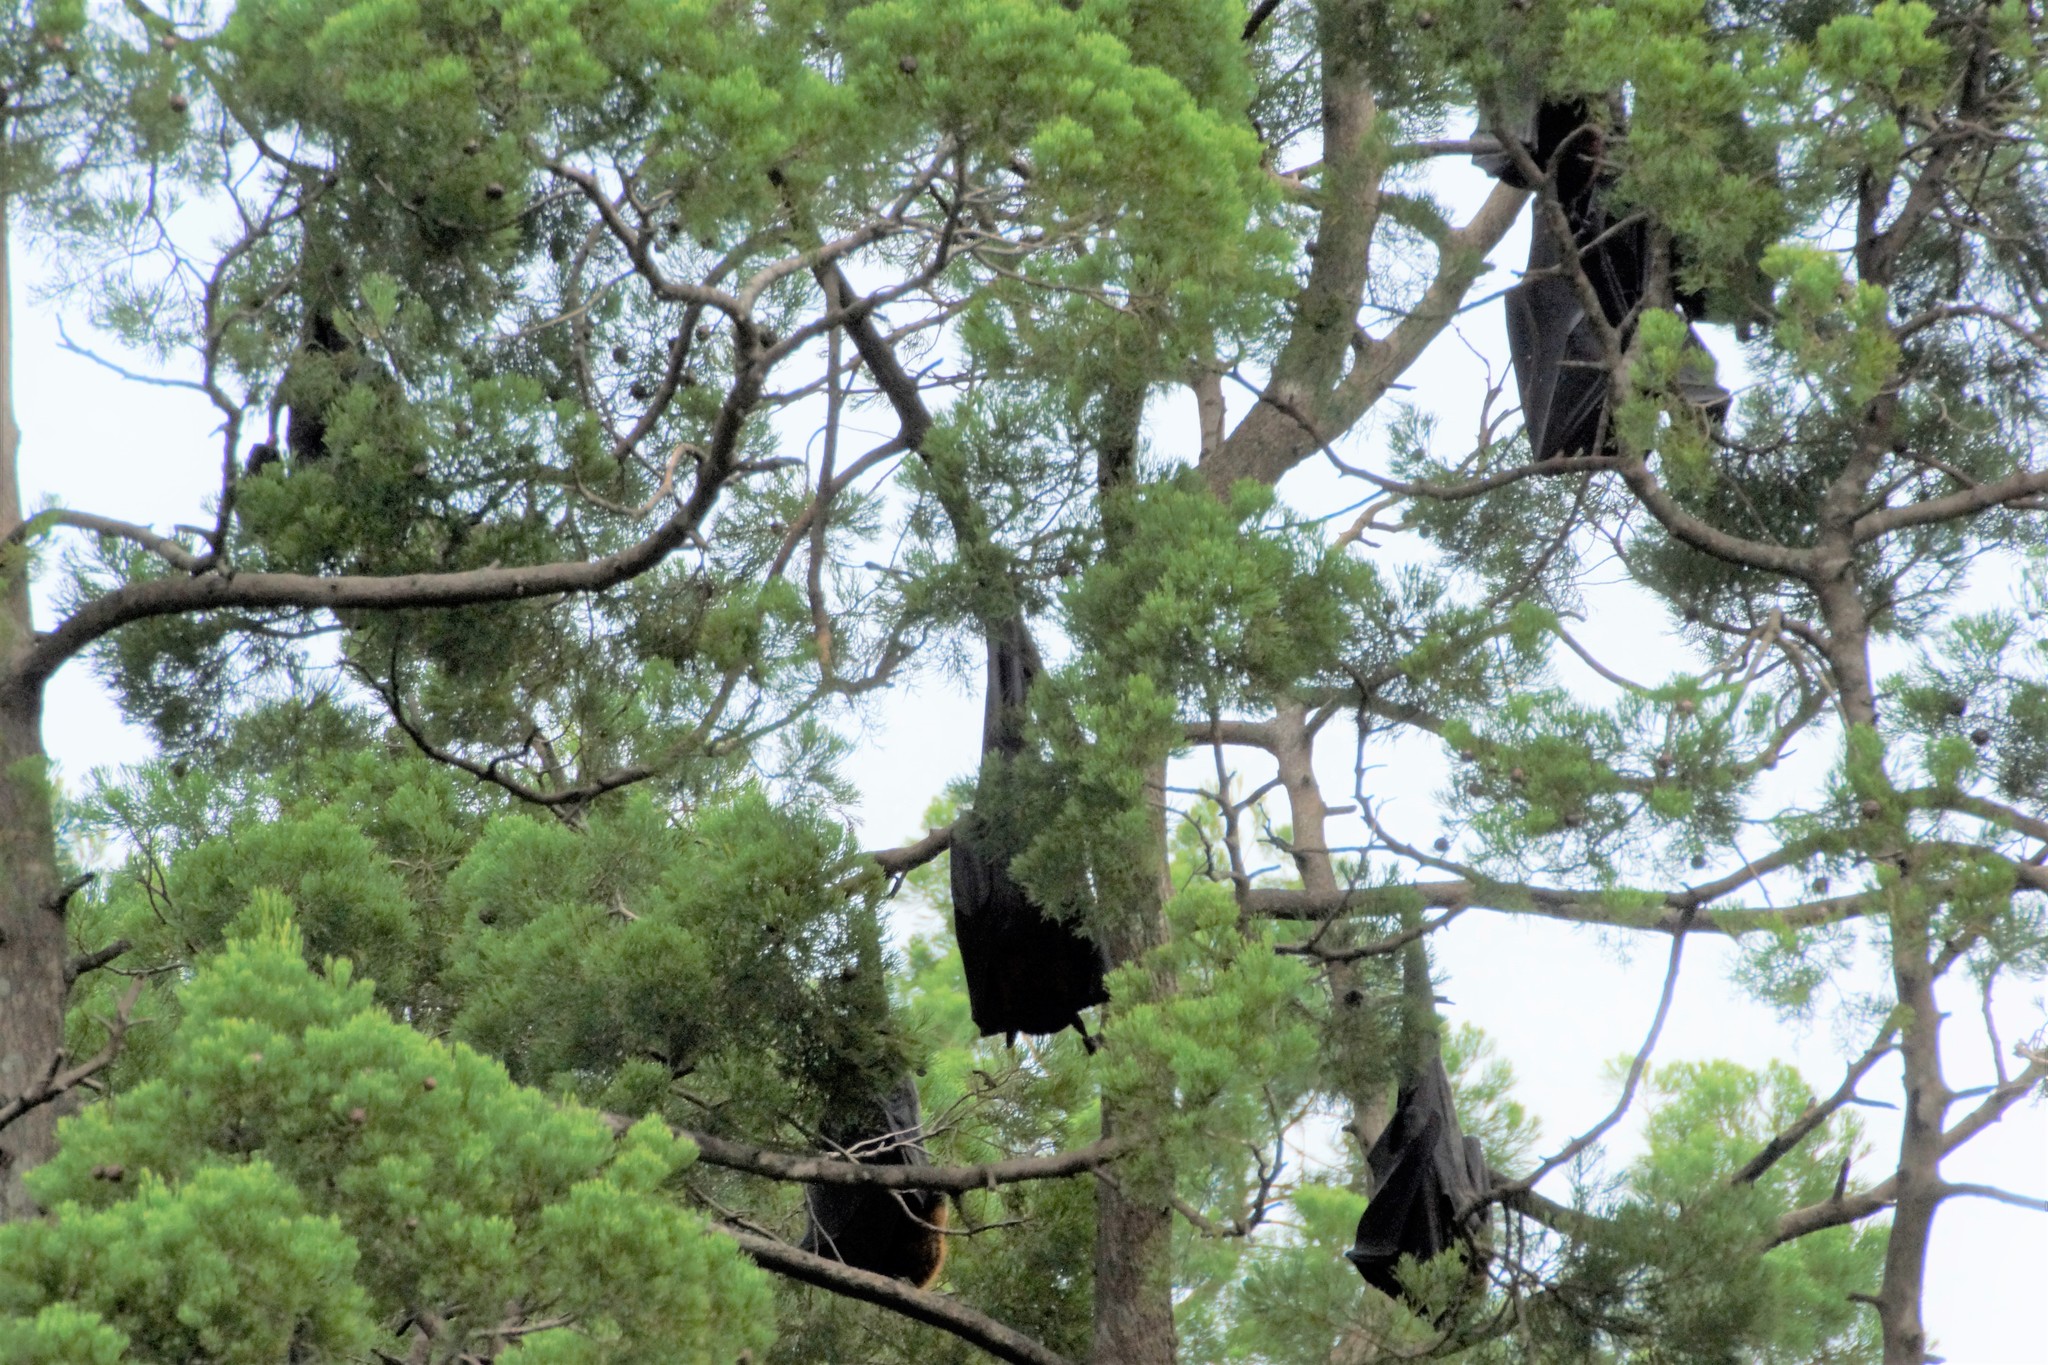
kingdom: Animalia
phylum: Chordata
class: Mammalia
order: Chiroptera
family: Pteropodidae
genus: Pteropus
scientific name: Pteropus alecto
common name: Black flying fox
